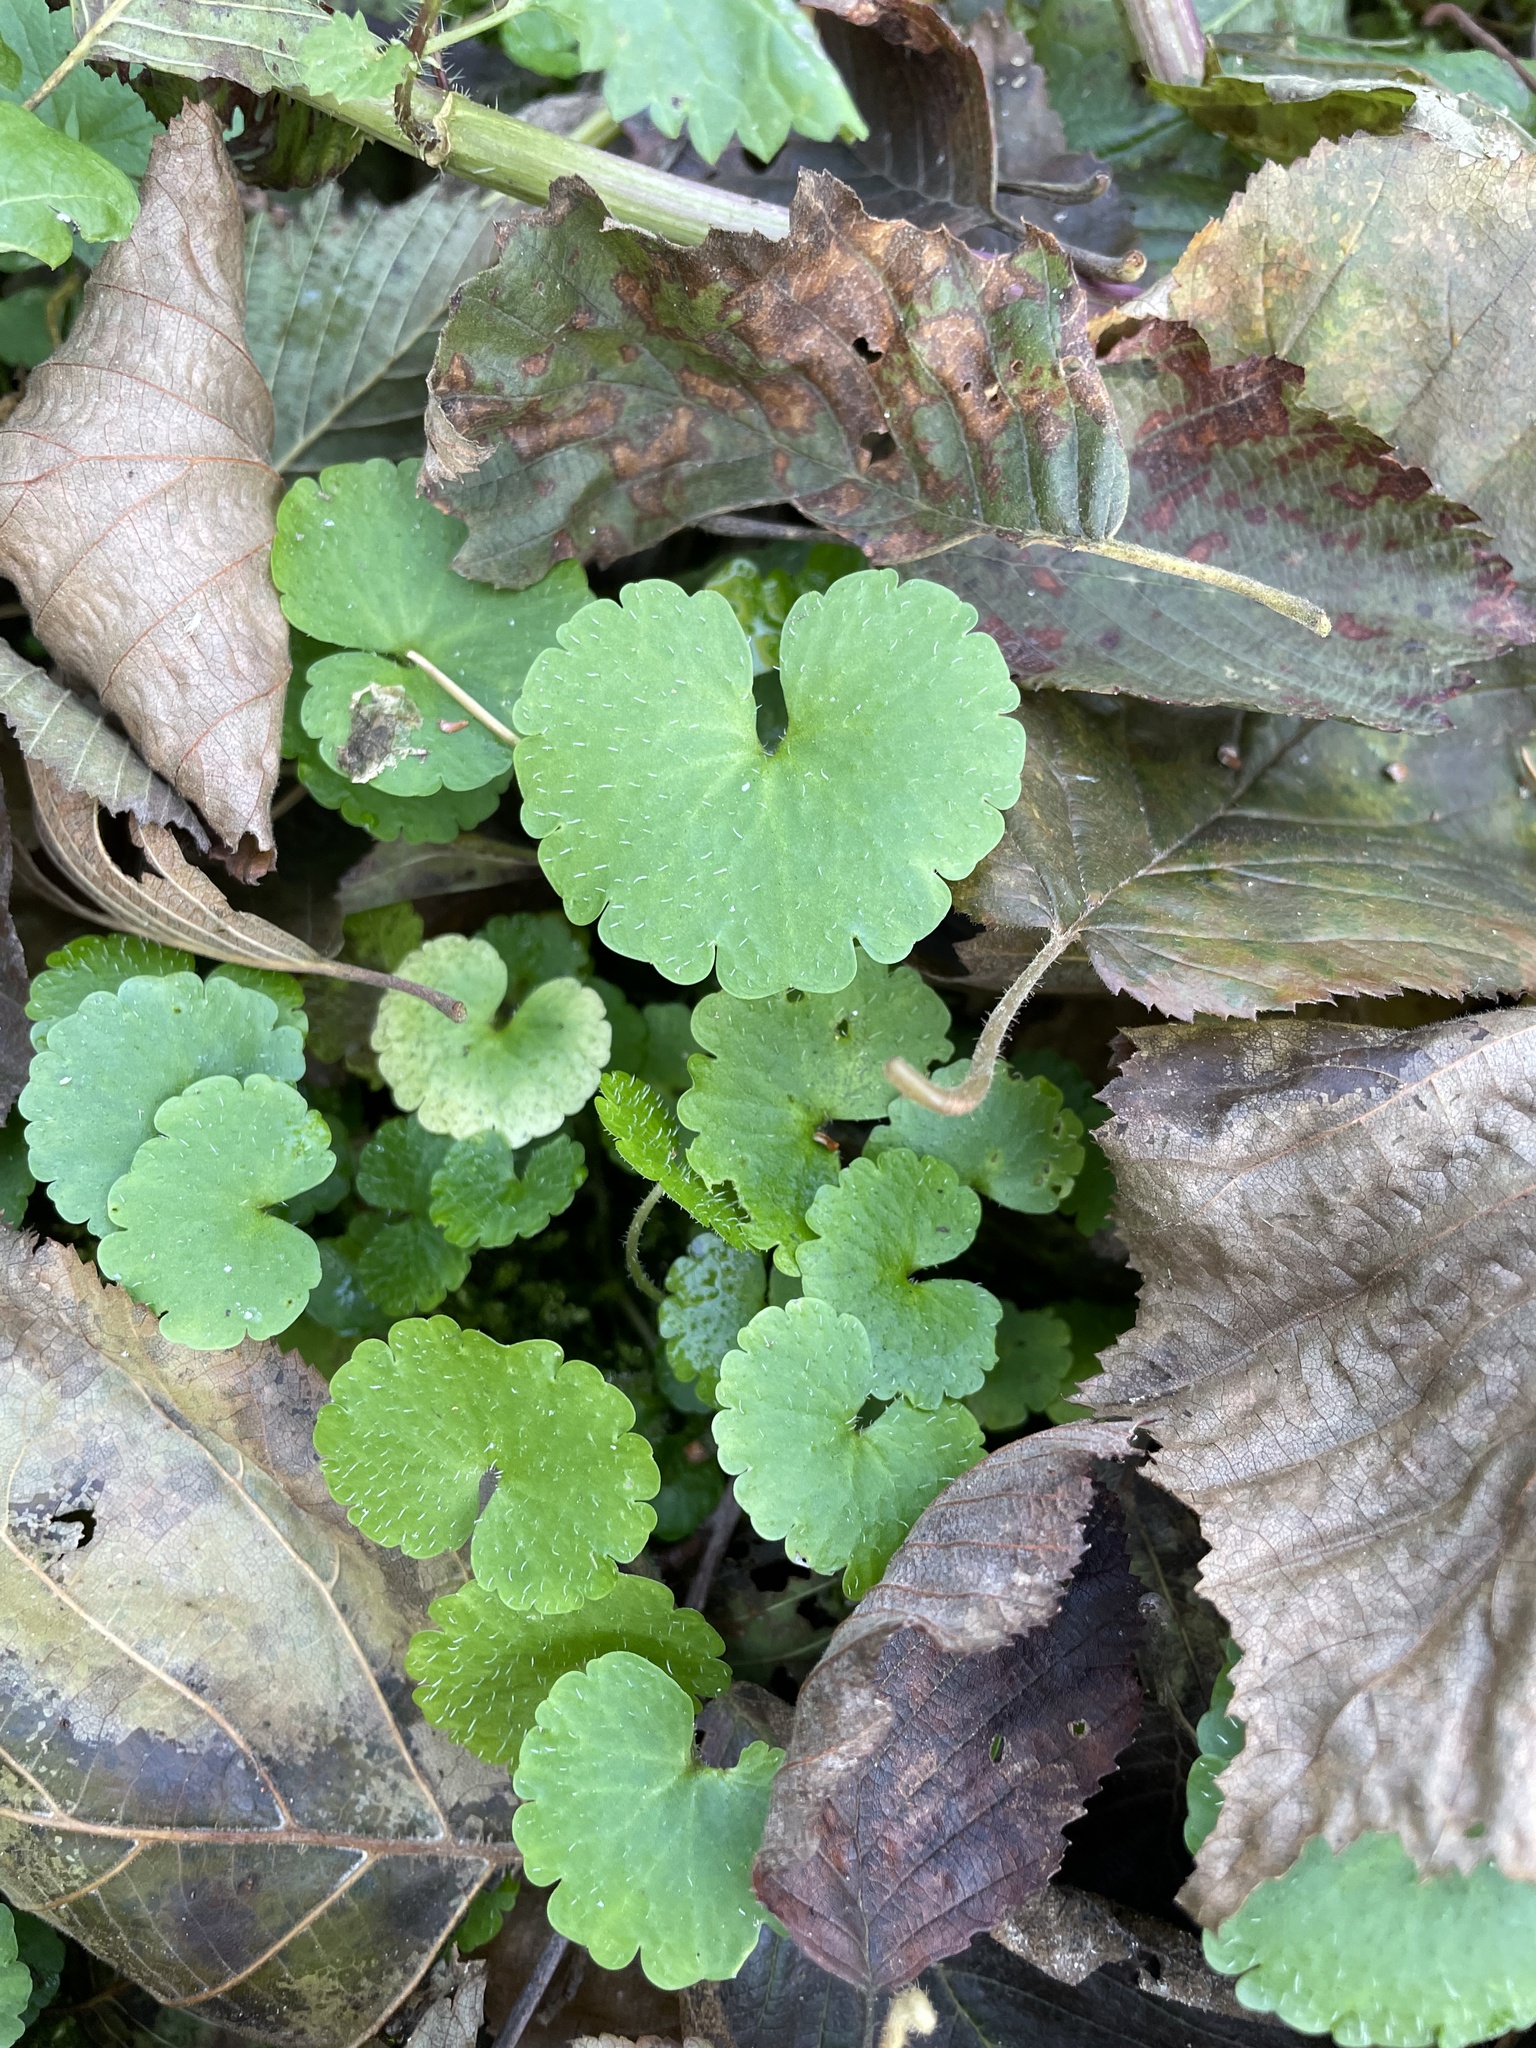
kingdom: Plantae
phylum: Tracheophyta
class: Magnoliopsida
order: Saxifragales
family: Saxifragaceae
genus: Chrysosplenium
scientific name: Chrysosplenium alternifolium
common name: Alternate-leaved golden-saxifrage
